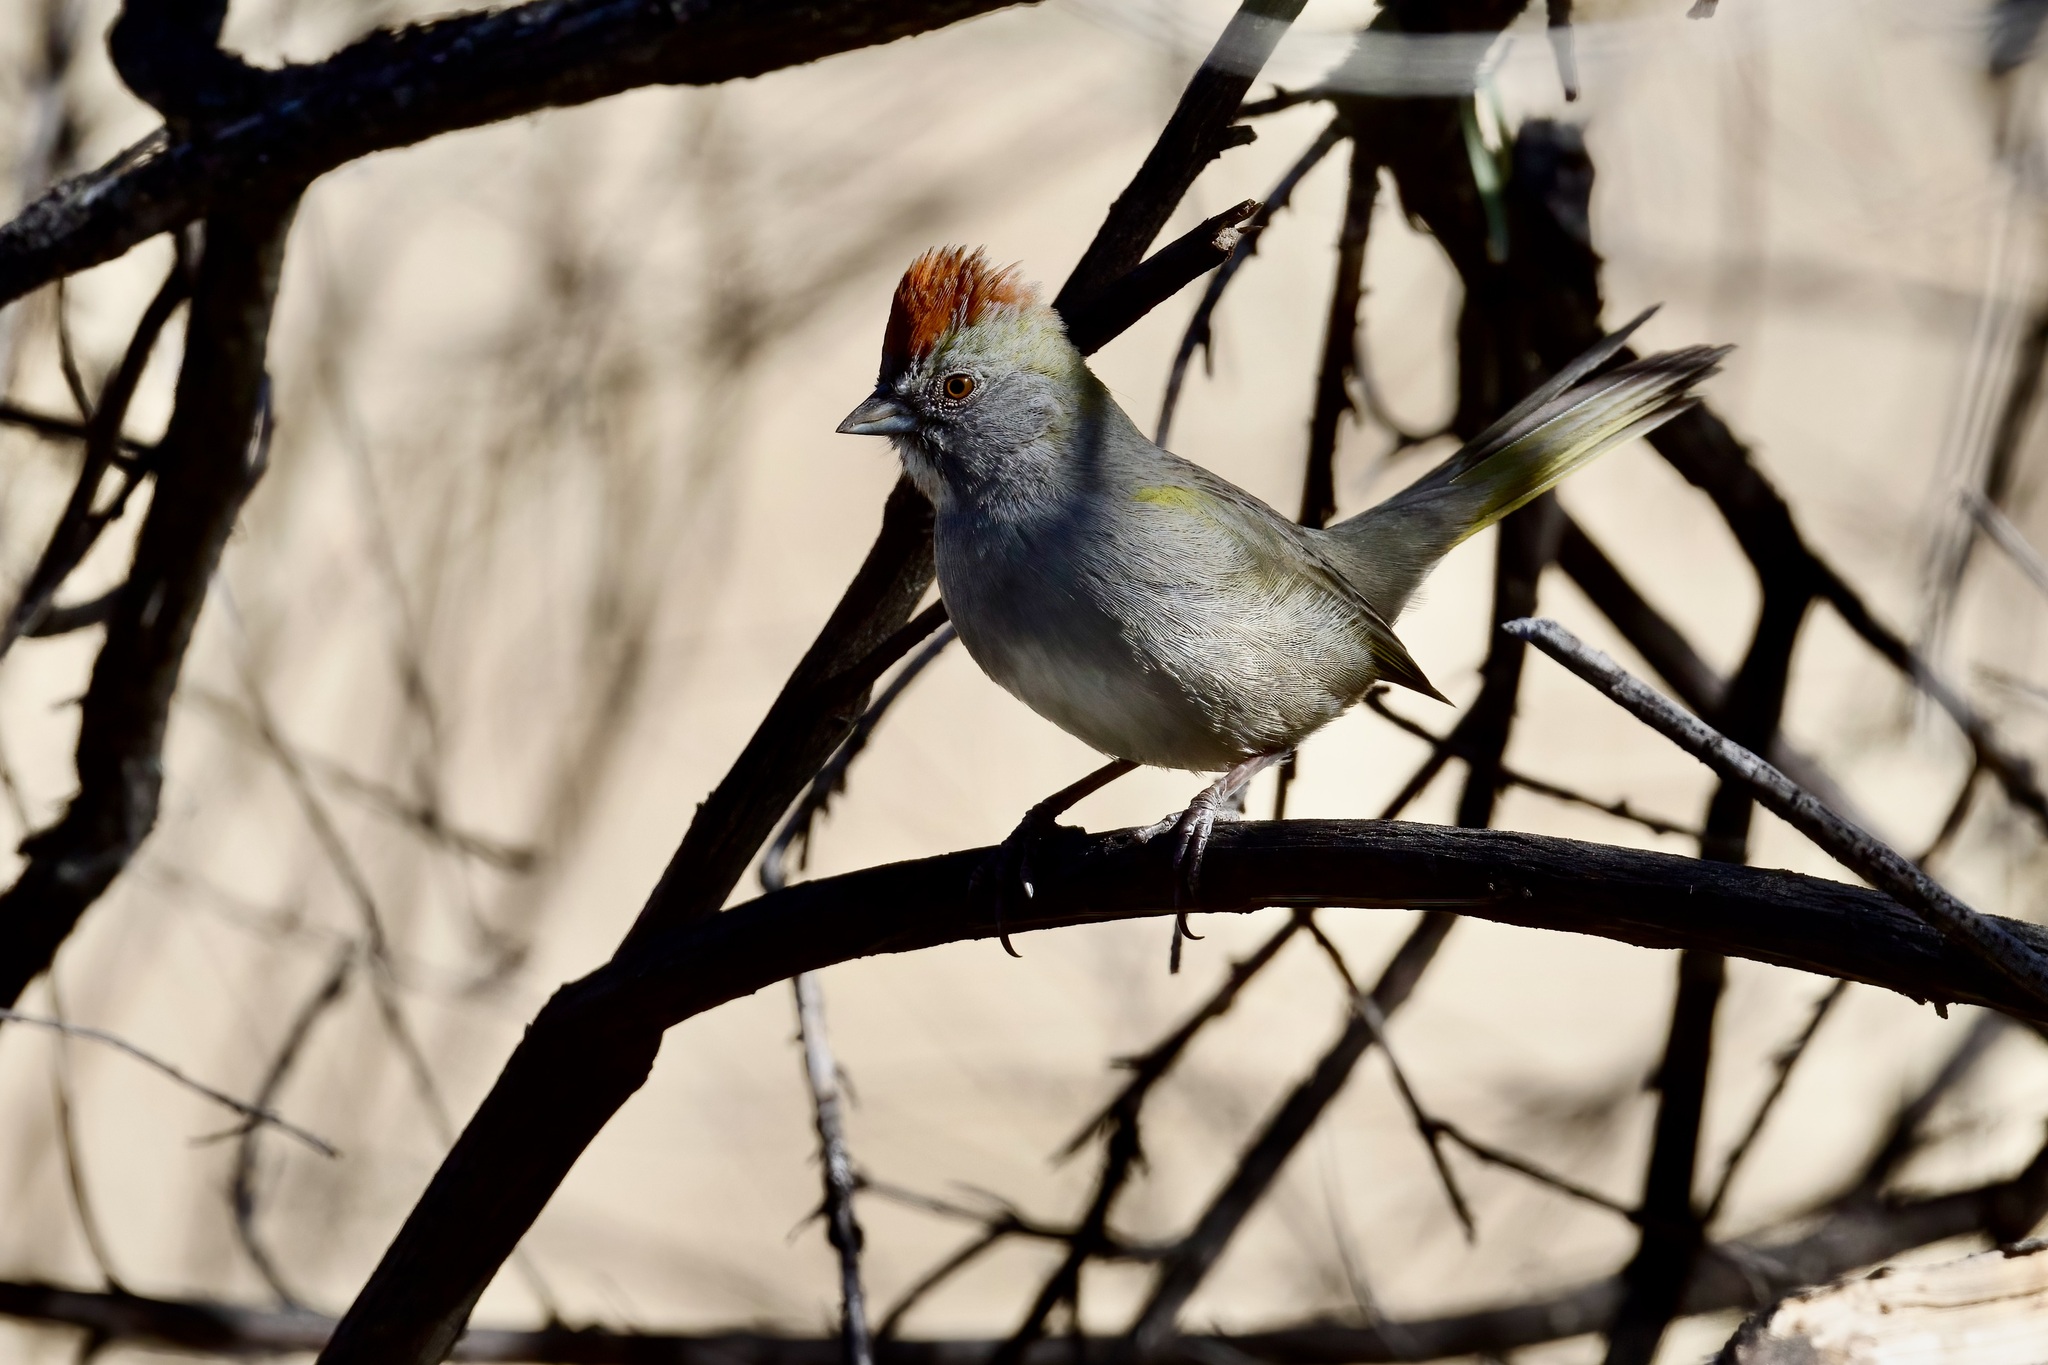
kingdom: Animalia
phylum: Chordata
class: Aves
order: Passeriformes
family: Passerellidae
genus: Pipilo
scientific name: Pipilo chlorurus
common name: Green-tailed towhee
